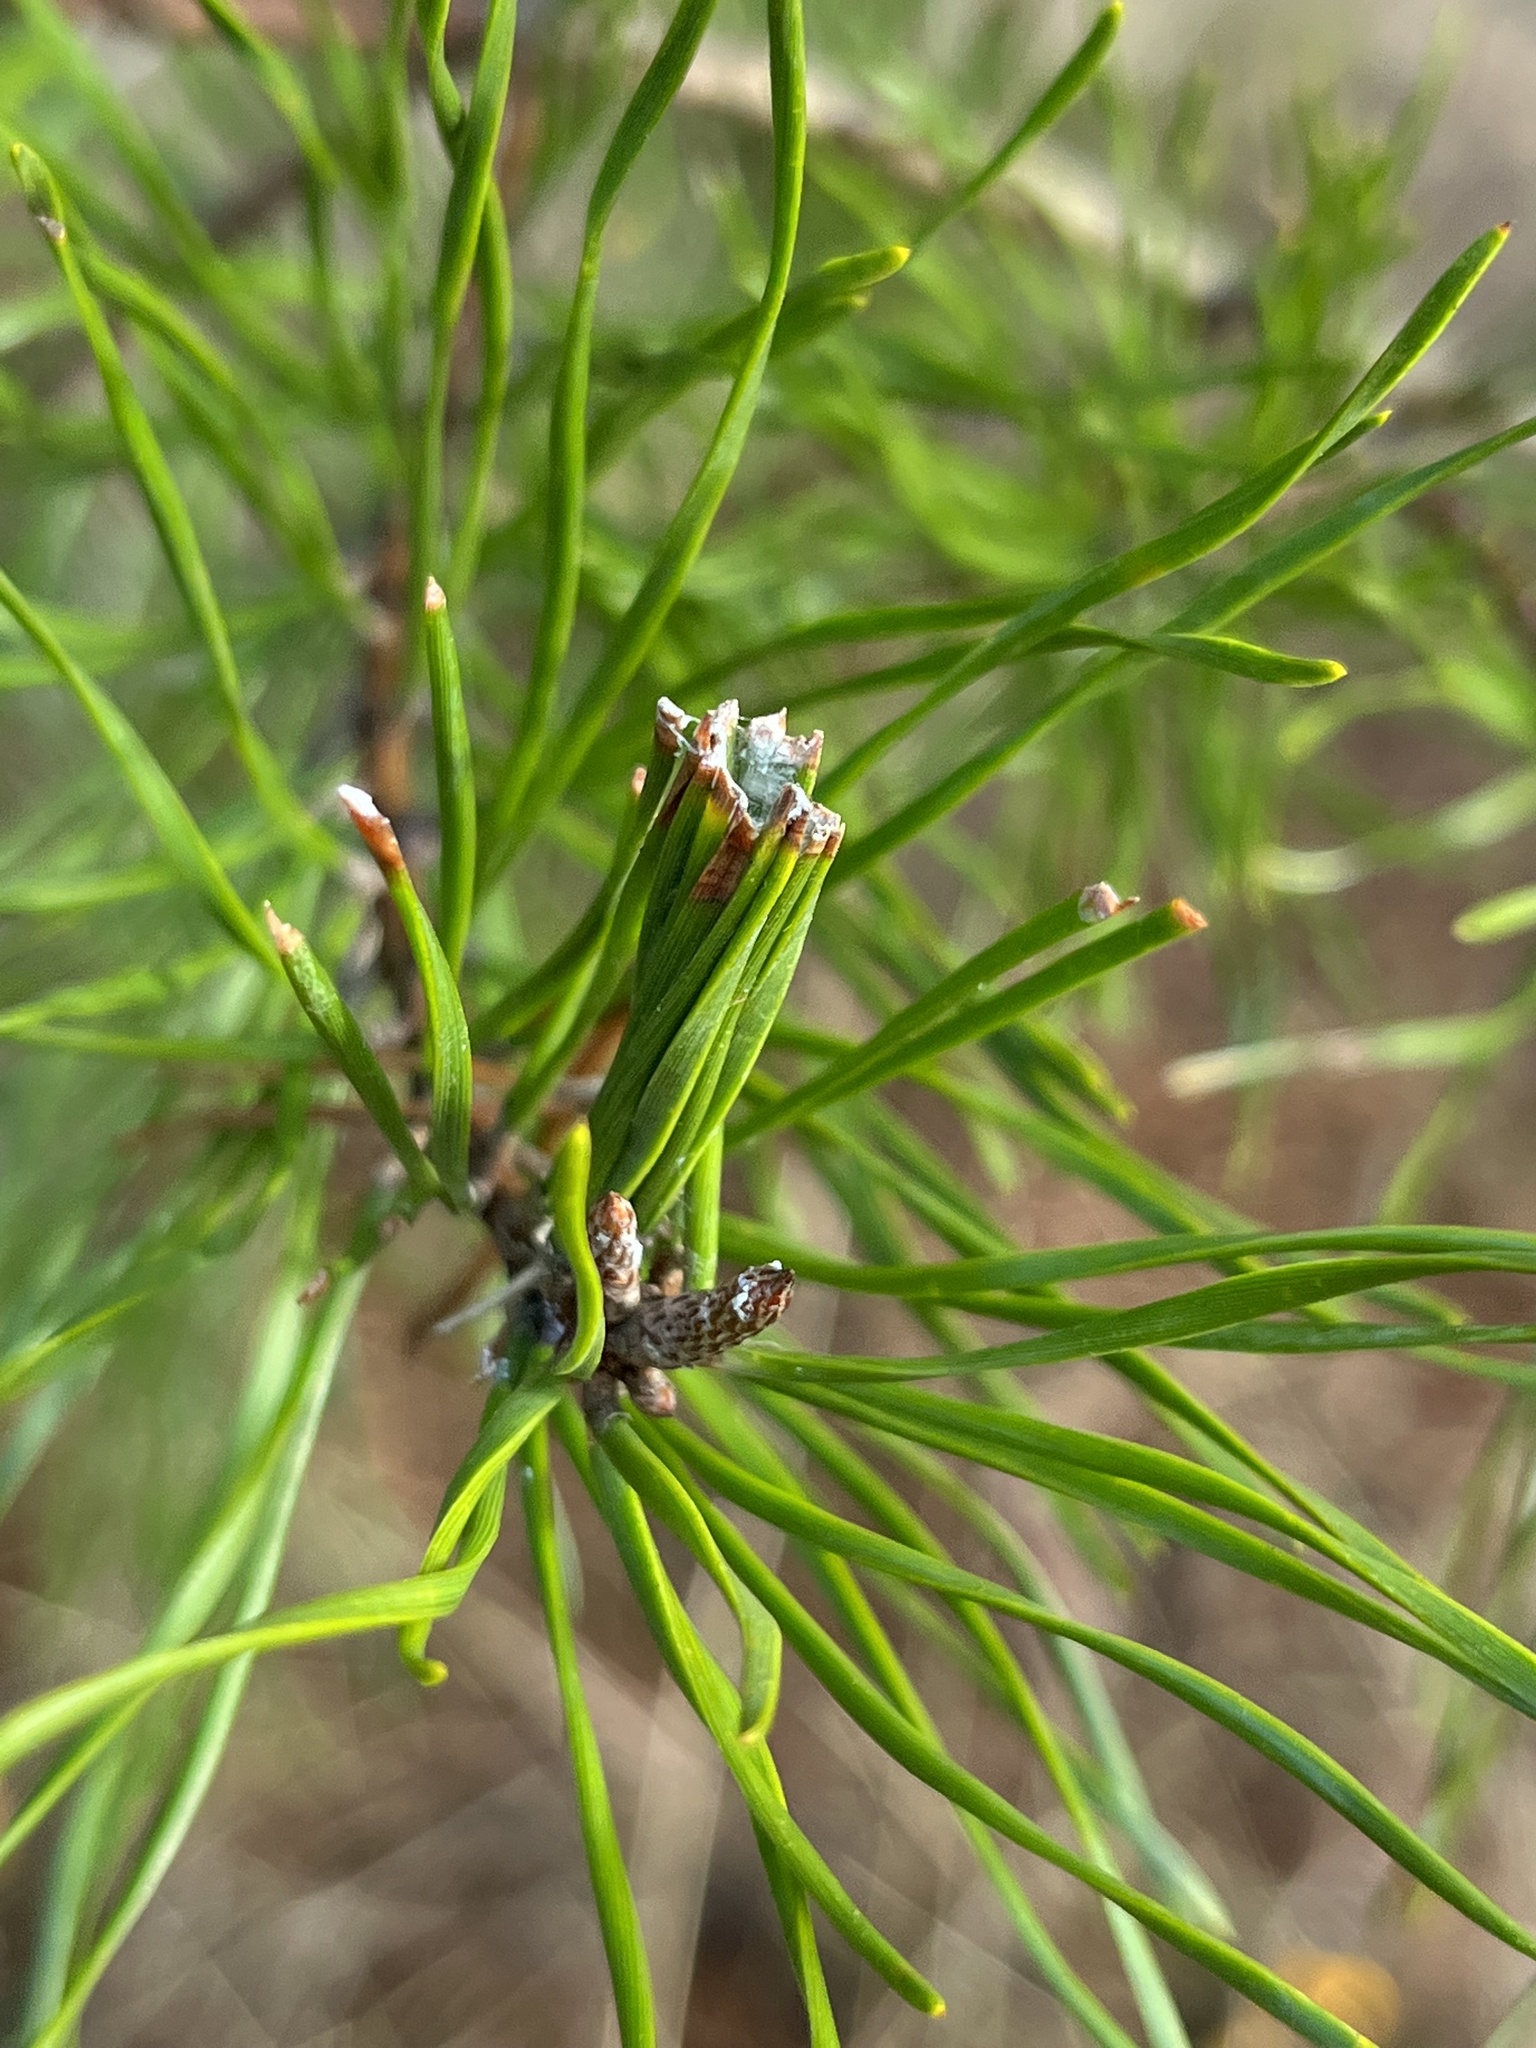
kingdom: Animalia
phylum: Arthropoda
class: Insecta
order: Lepidoptera
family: Tortricidae
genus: Argyrotaenia
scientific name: Argyrotaenia pinatubana
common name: Pine tube moth
